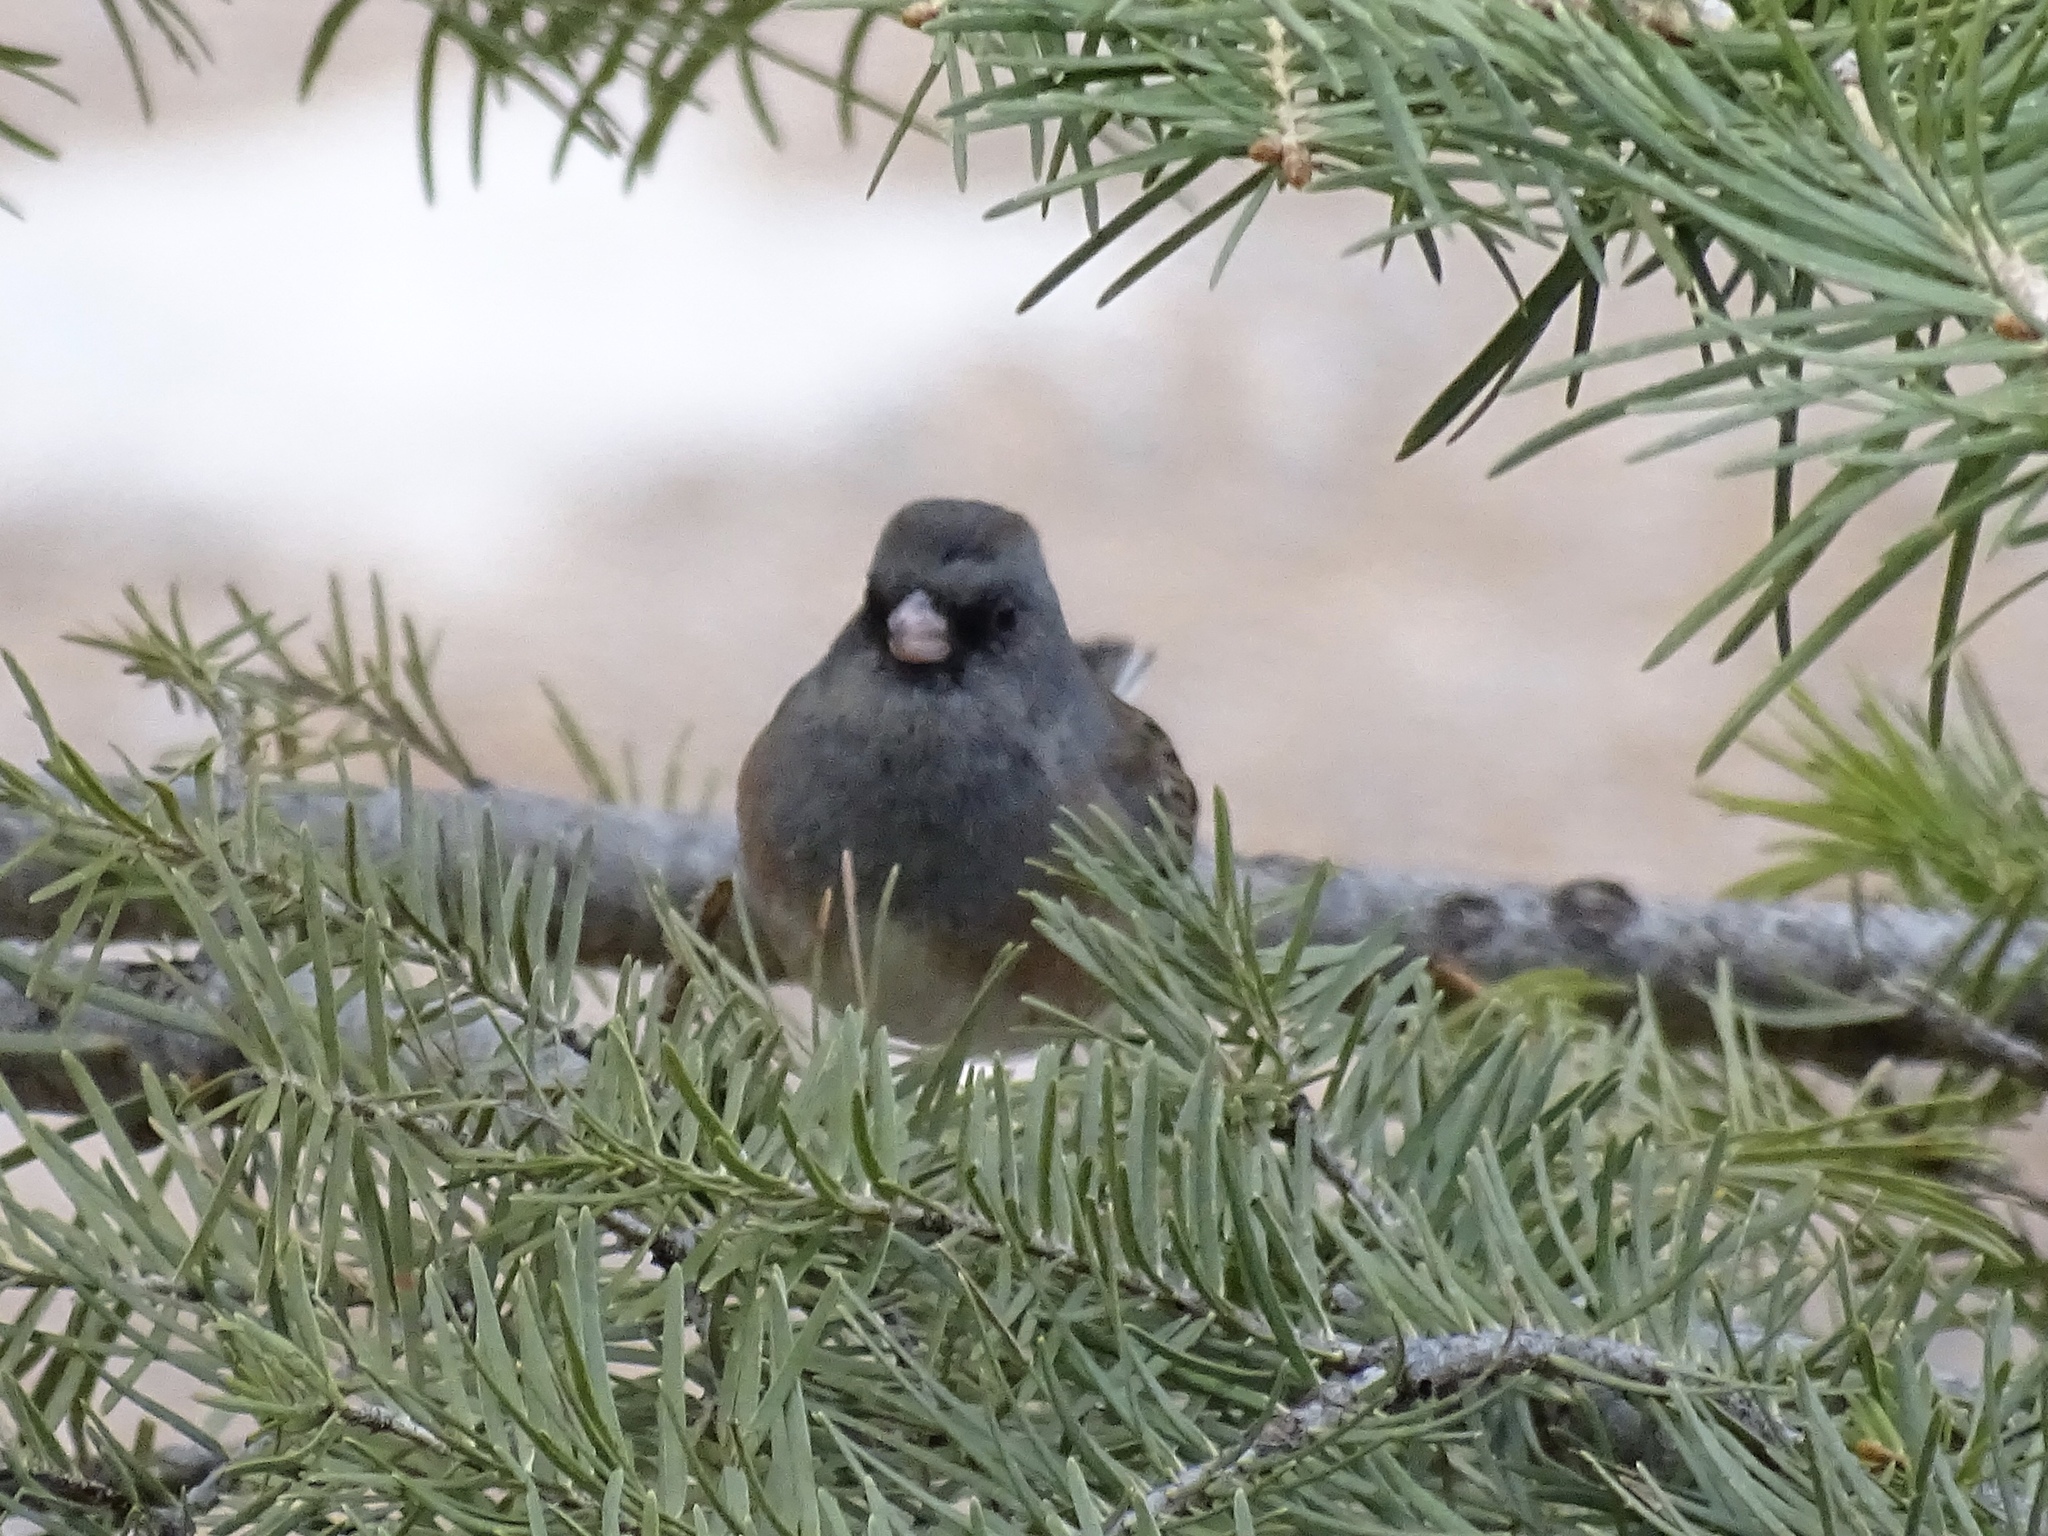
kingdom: Animalia
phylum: Chordata
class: Aves
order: Passeriformes
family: Passerellidae
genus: Junco
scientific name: Junco hyemalis
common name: Dark-eyed junco
